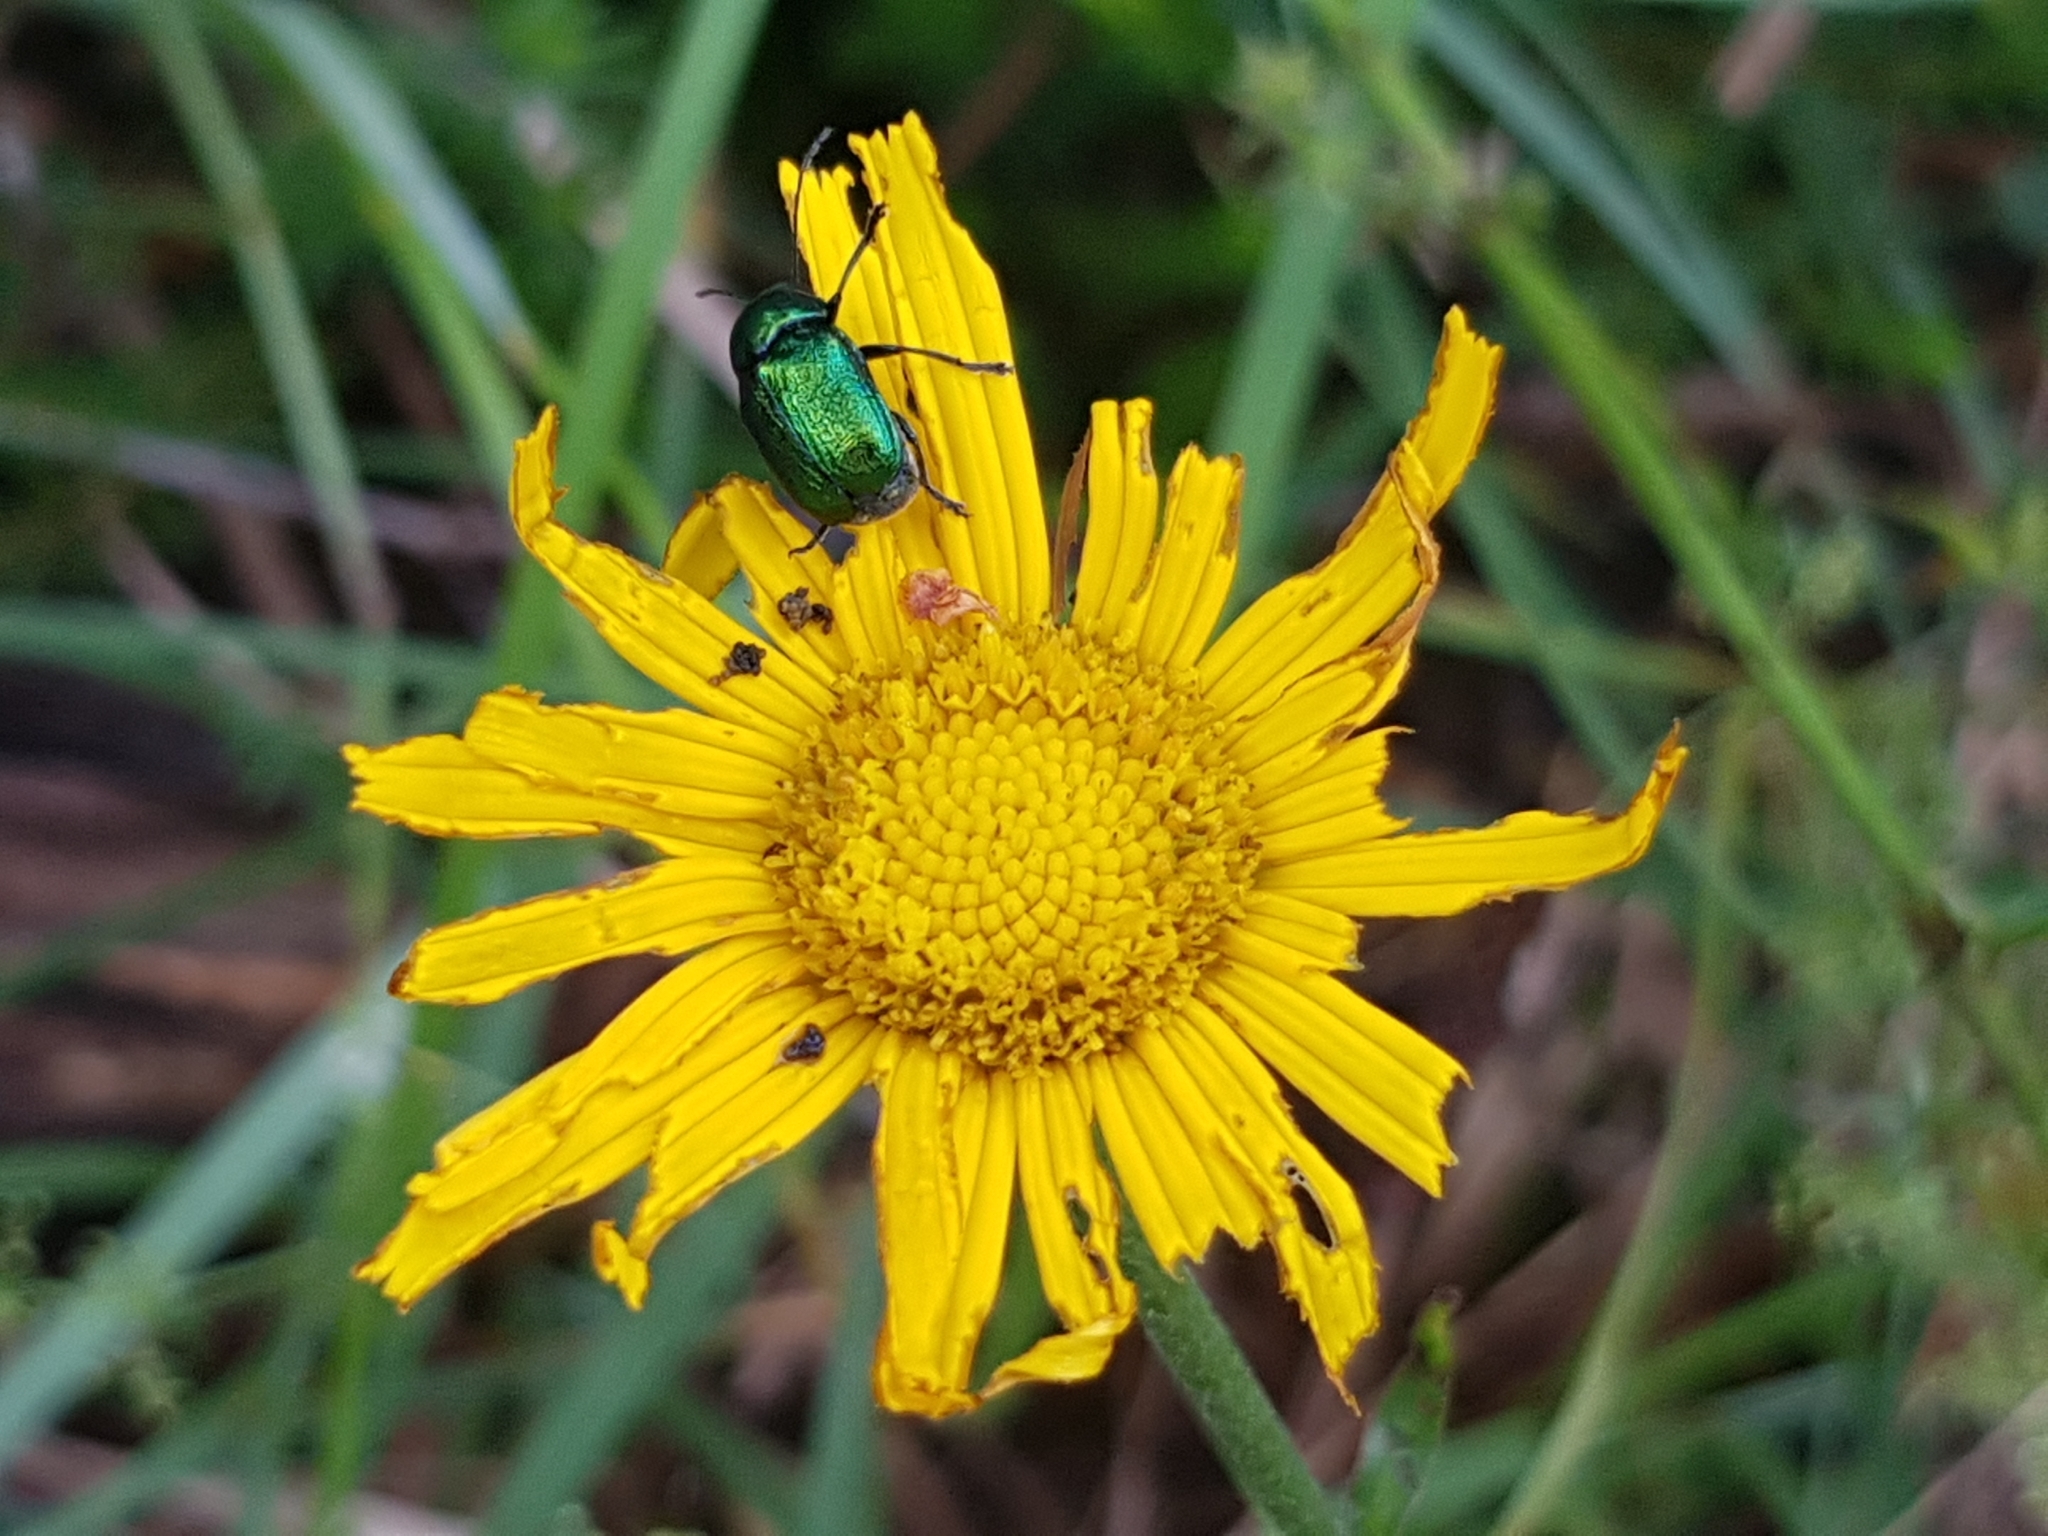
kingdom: Plantae
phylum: Tracheophyta
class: Magnoliopsida
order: Asterales
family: Asteraceae
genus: Buphthalmum
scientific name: Buphthalmum salicifolium
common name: Willow-leaved yellow-oxeye
